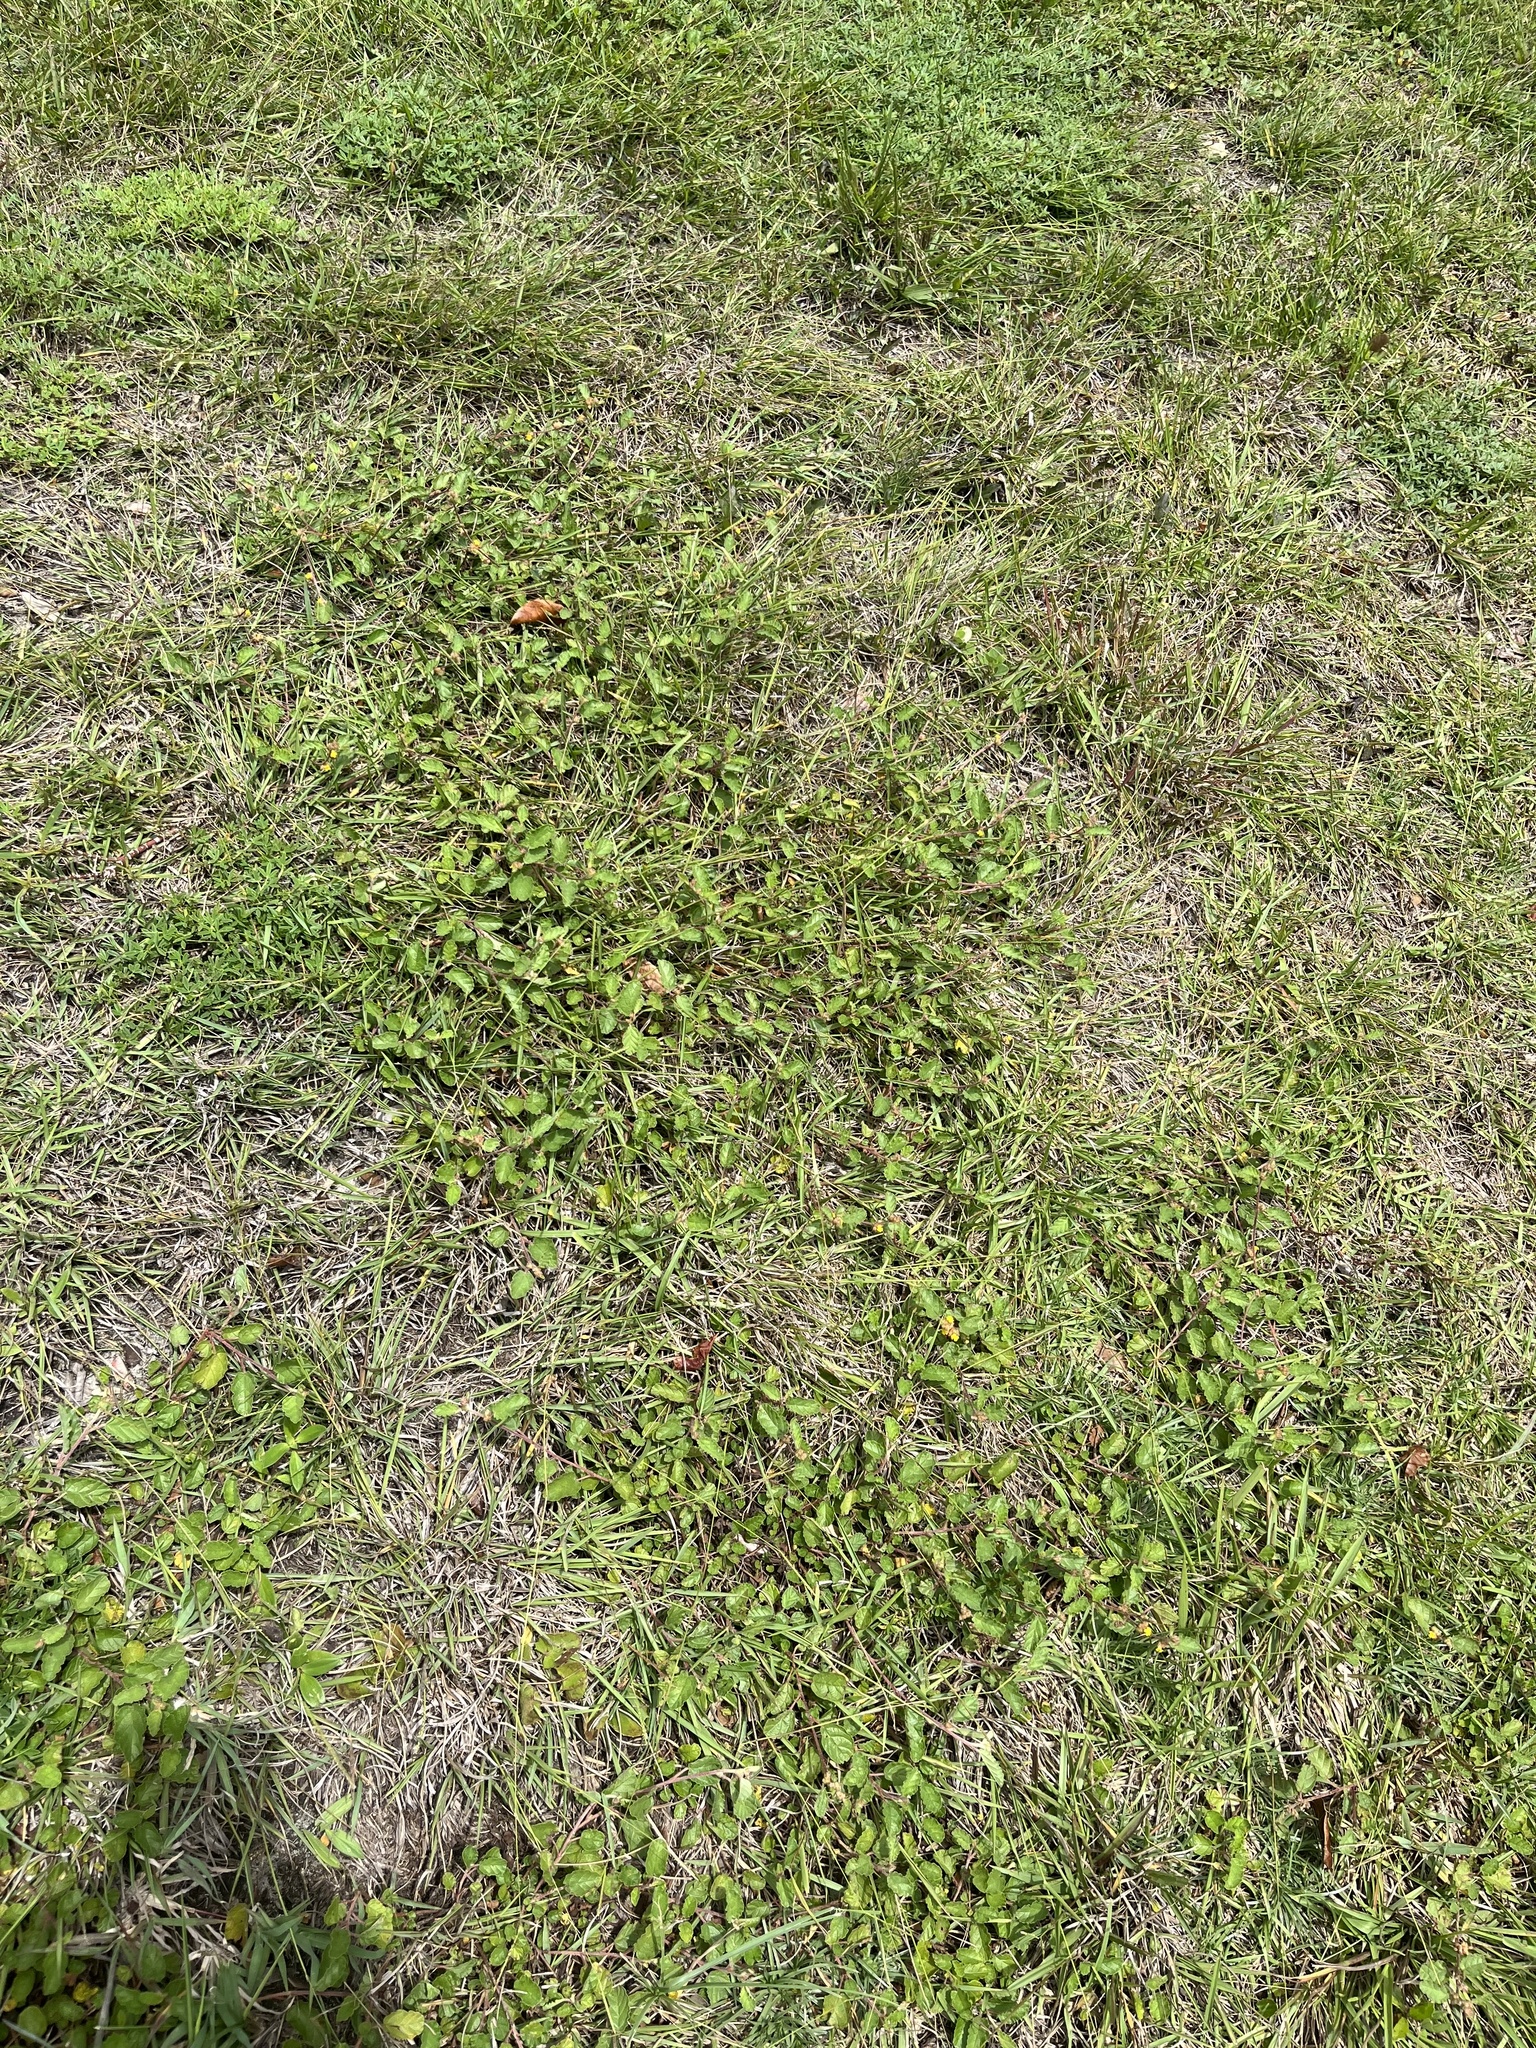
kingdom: Plantae
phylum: Tracheophyta
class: Magnoliopsida
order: Malvales
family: Malvaceae
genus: Waltheria
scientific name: Waltheria indica
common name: Leather-coat
